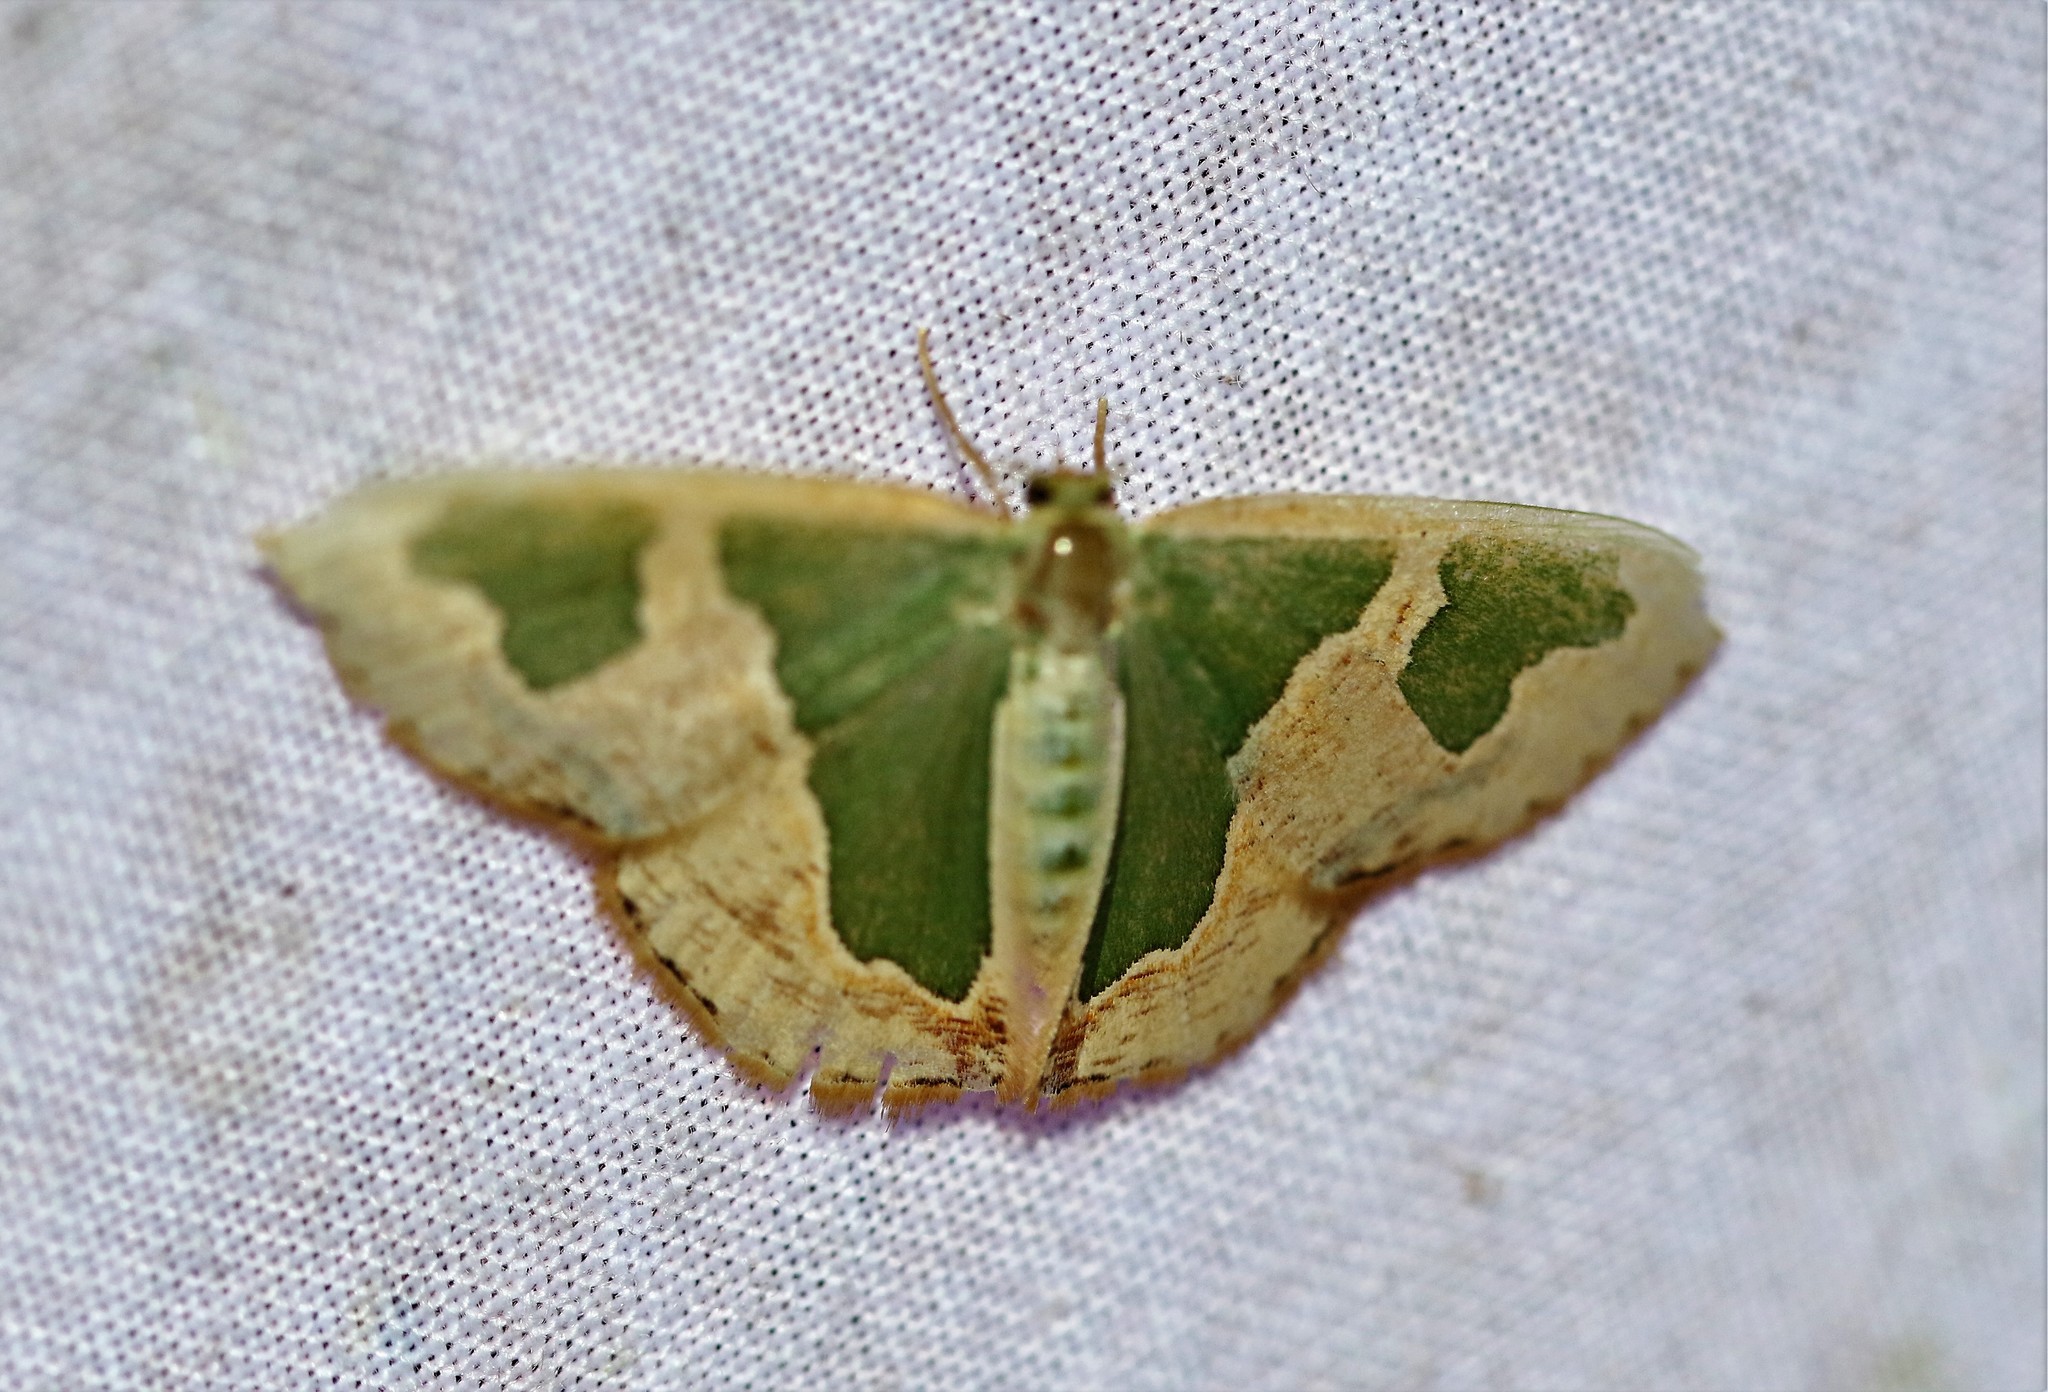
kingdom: Animalia
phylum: Arthropoda
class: Insecta
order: Lepidoptera
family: Geometridae
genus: Oospila
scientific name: Oospila venezuelata
